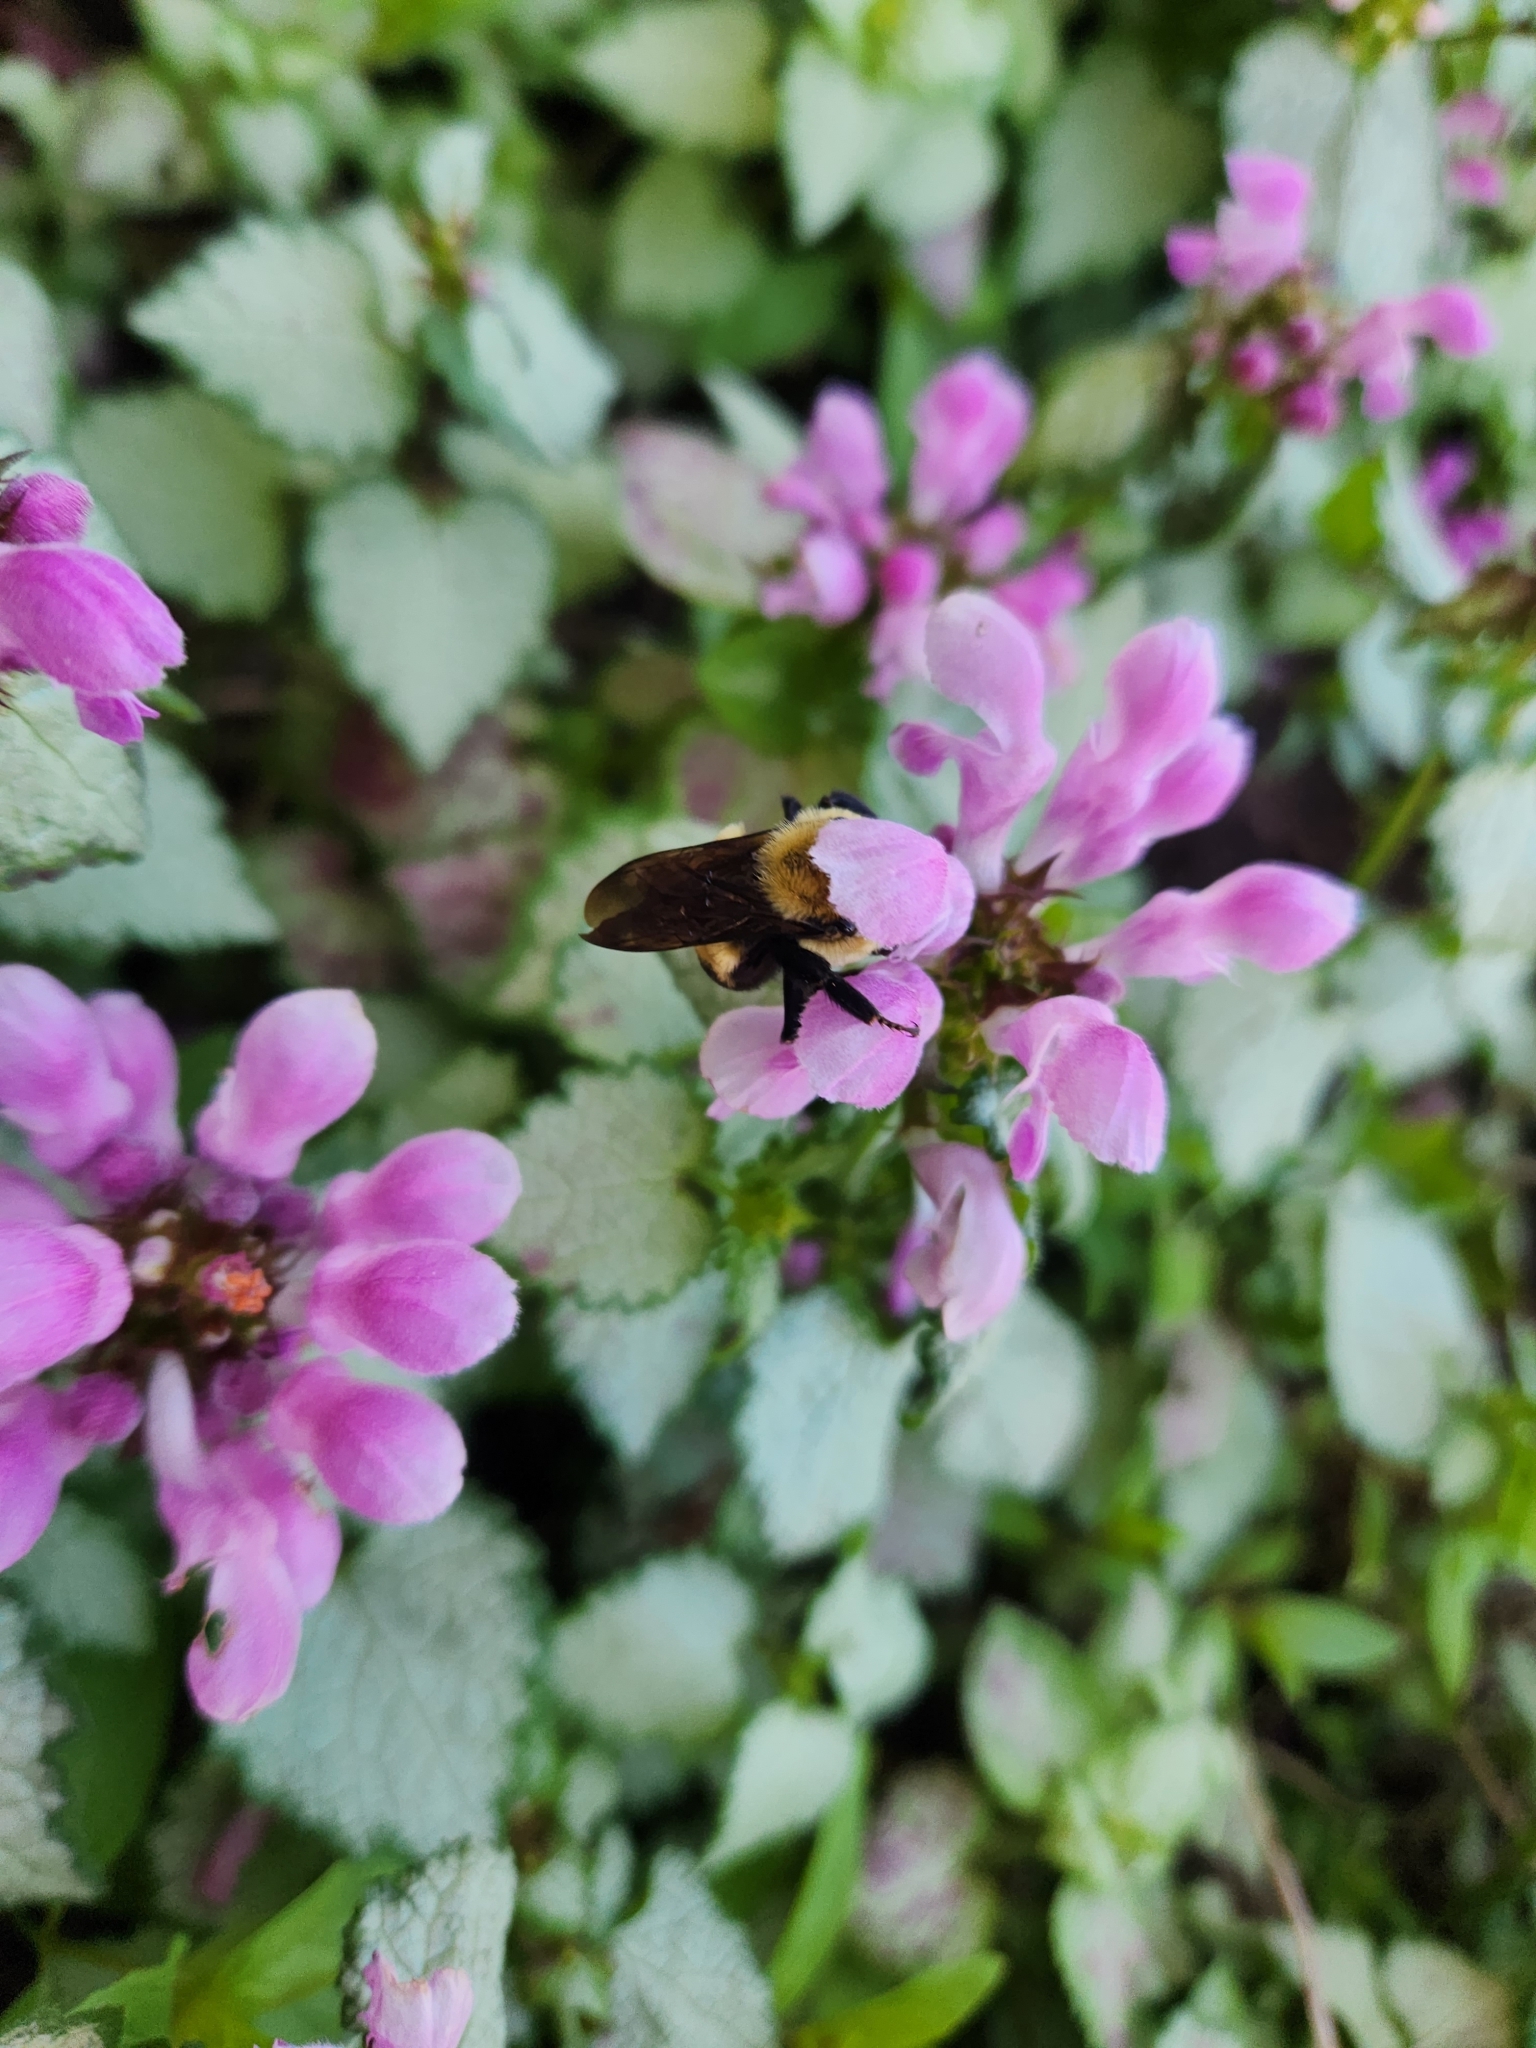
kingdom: Animalia
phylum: Arthropoda
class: Insecta
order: Hymenoptera
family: Apidae
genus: Bombus
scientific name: Bombus griseocollis
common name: Brown-belted bumble bee
